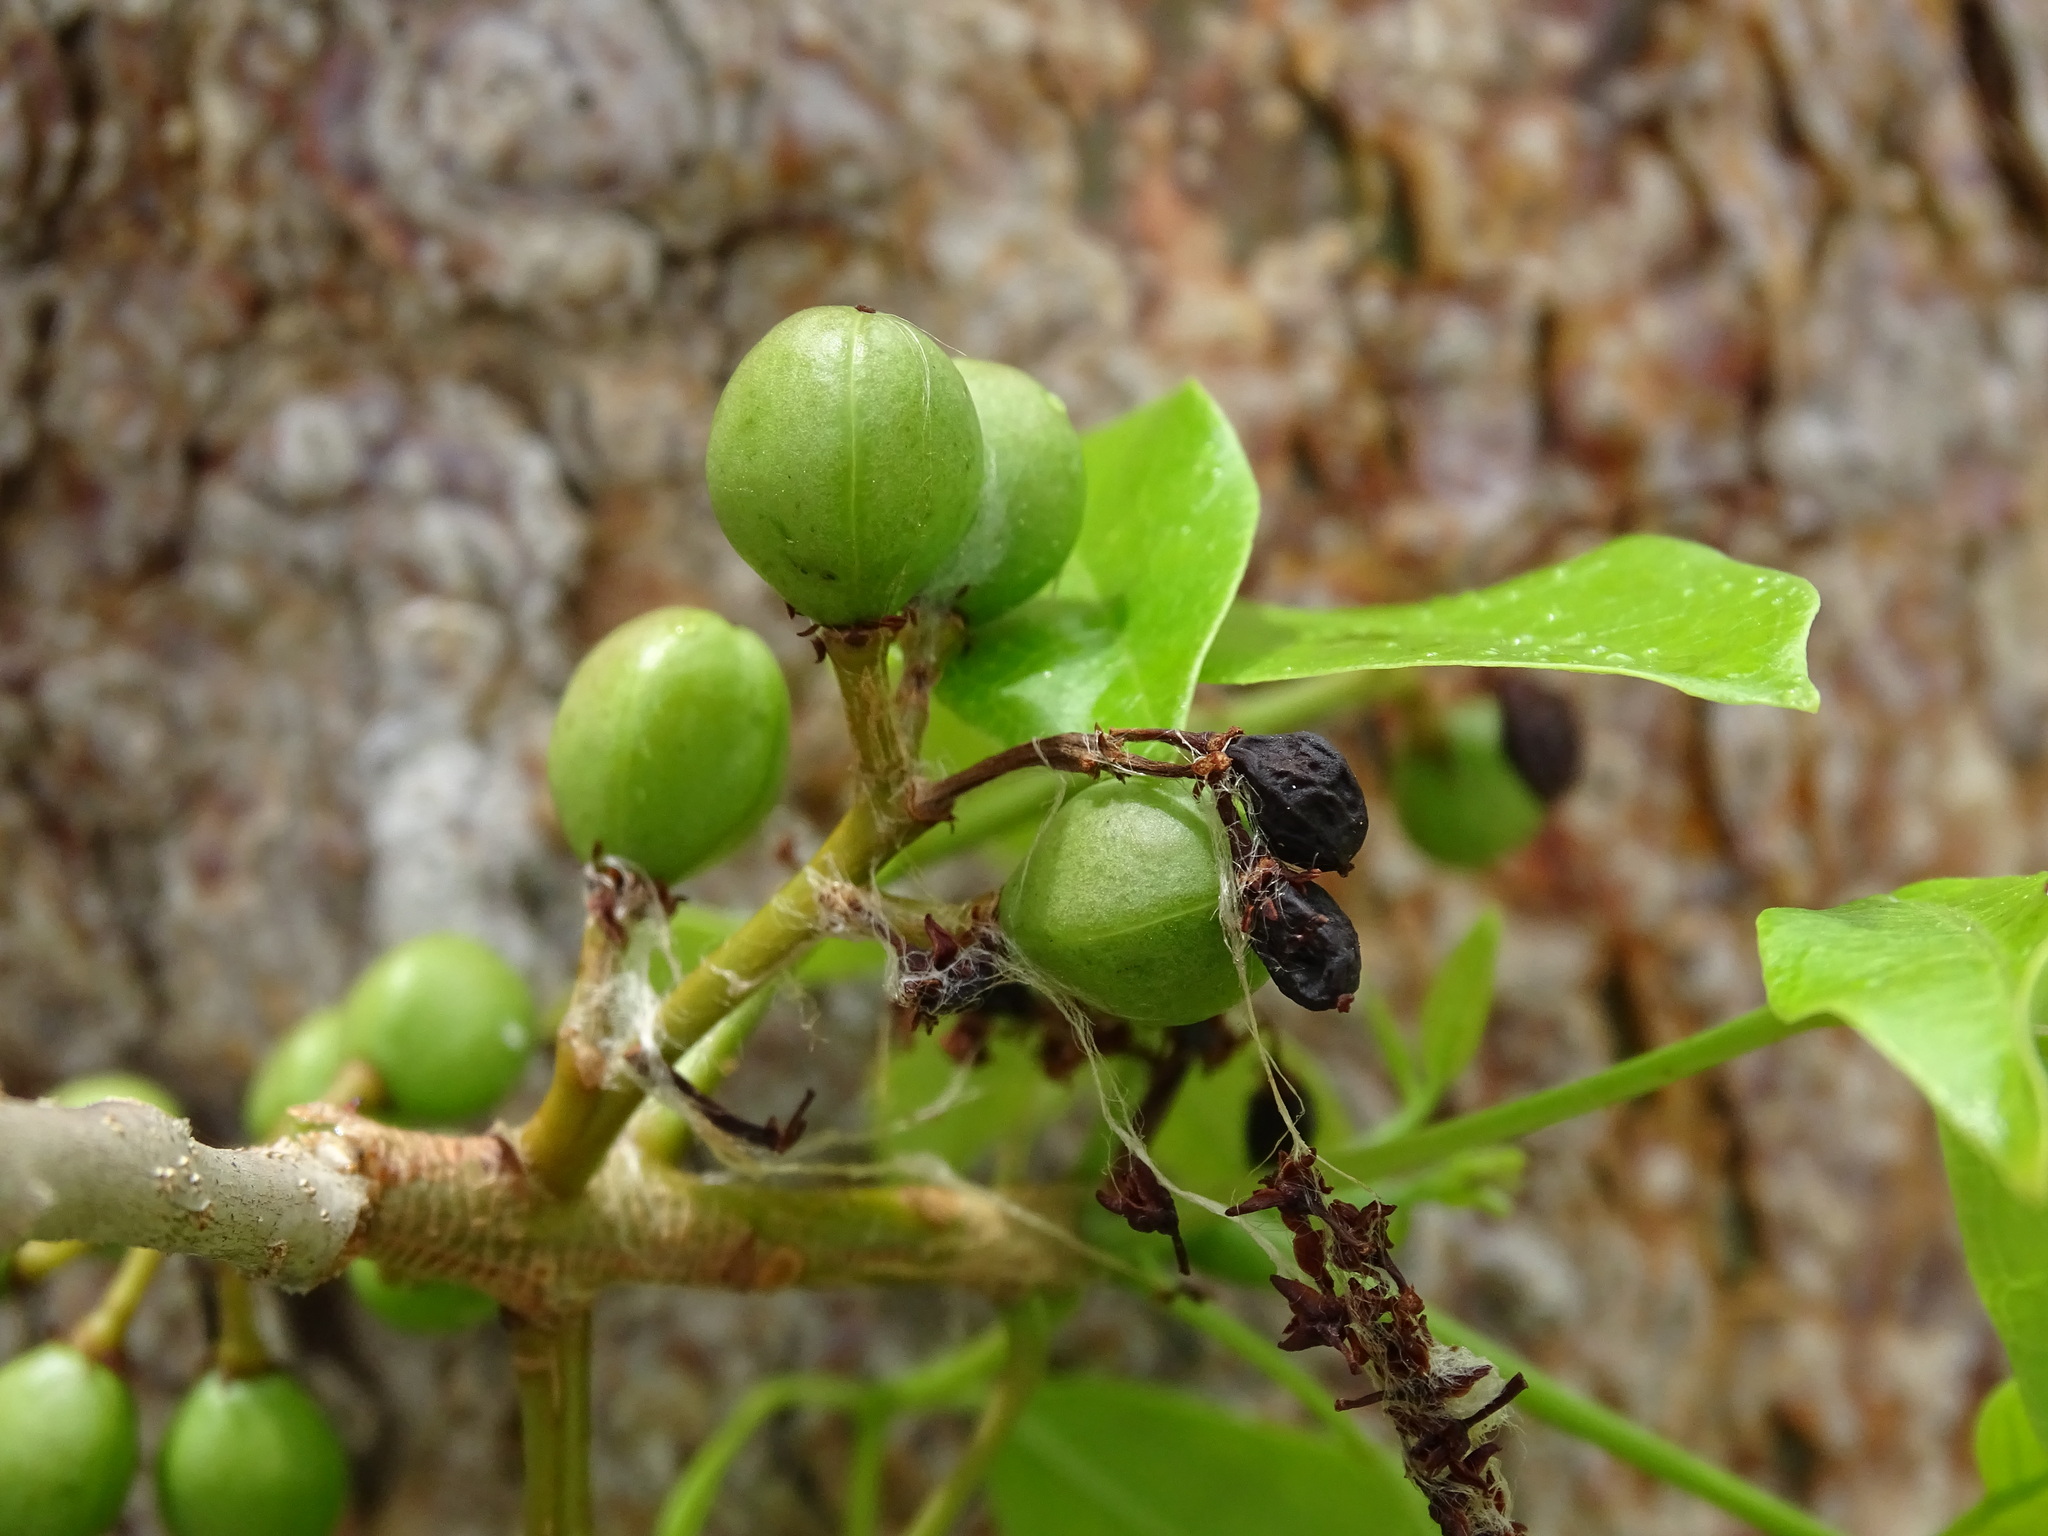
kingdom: Plantae
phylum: Tracheophyta
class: Magnoliopsida
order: Sapindales
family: Burseraceae
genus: Bursera
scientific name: Bursera simaruba
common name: Turpentine tree
